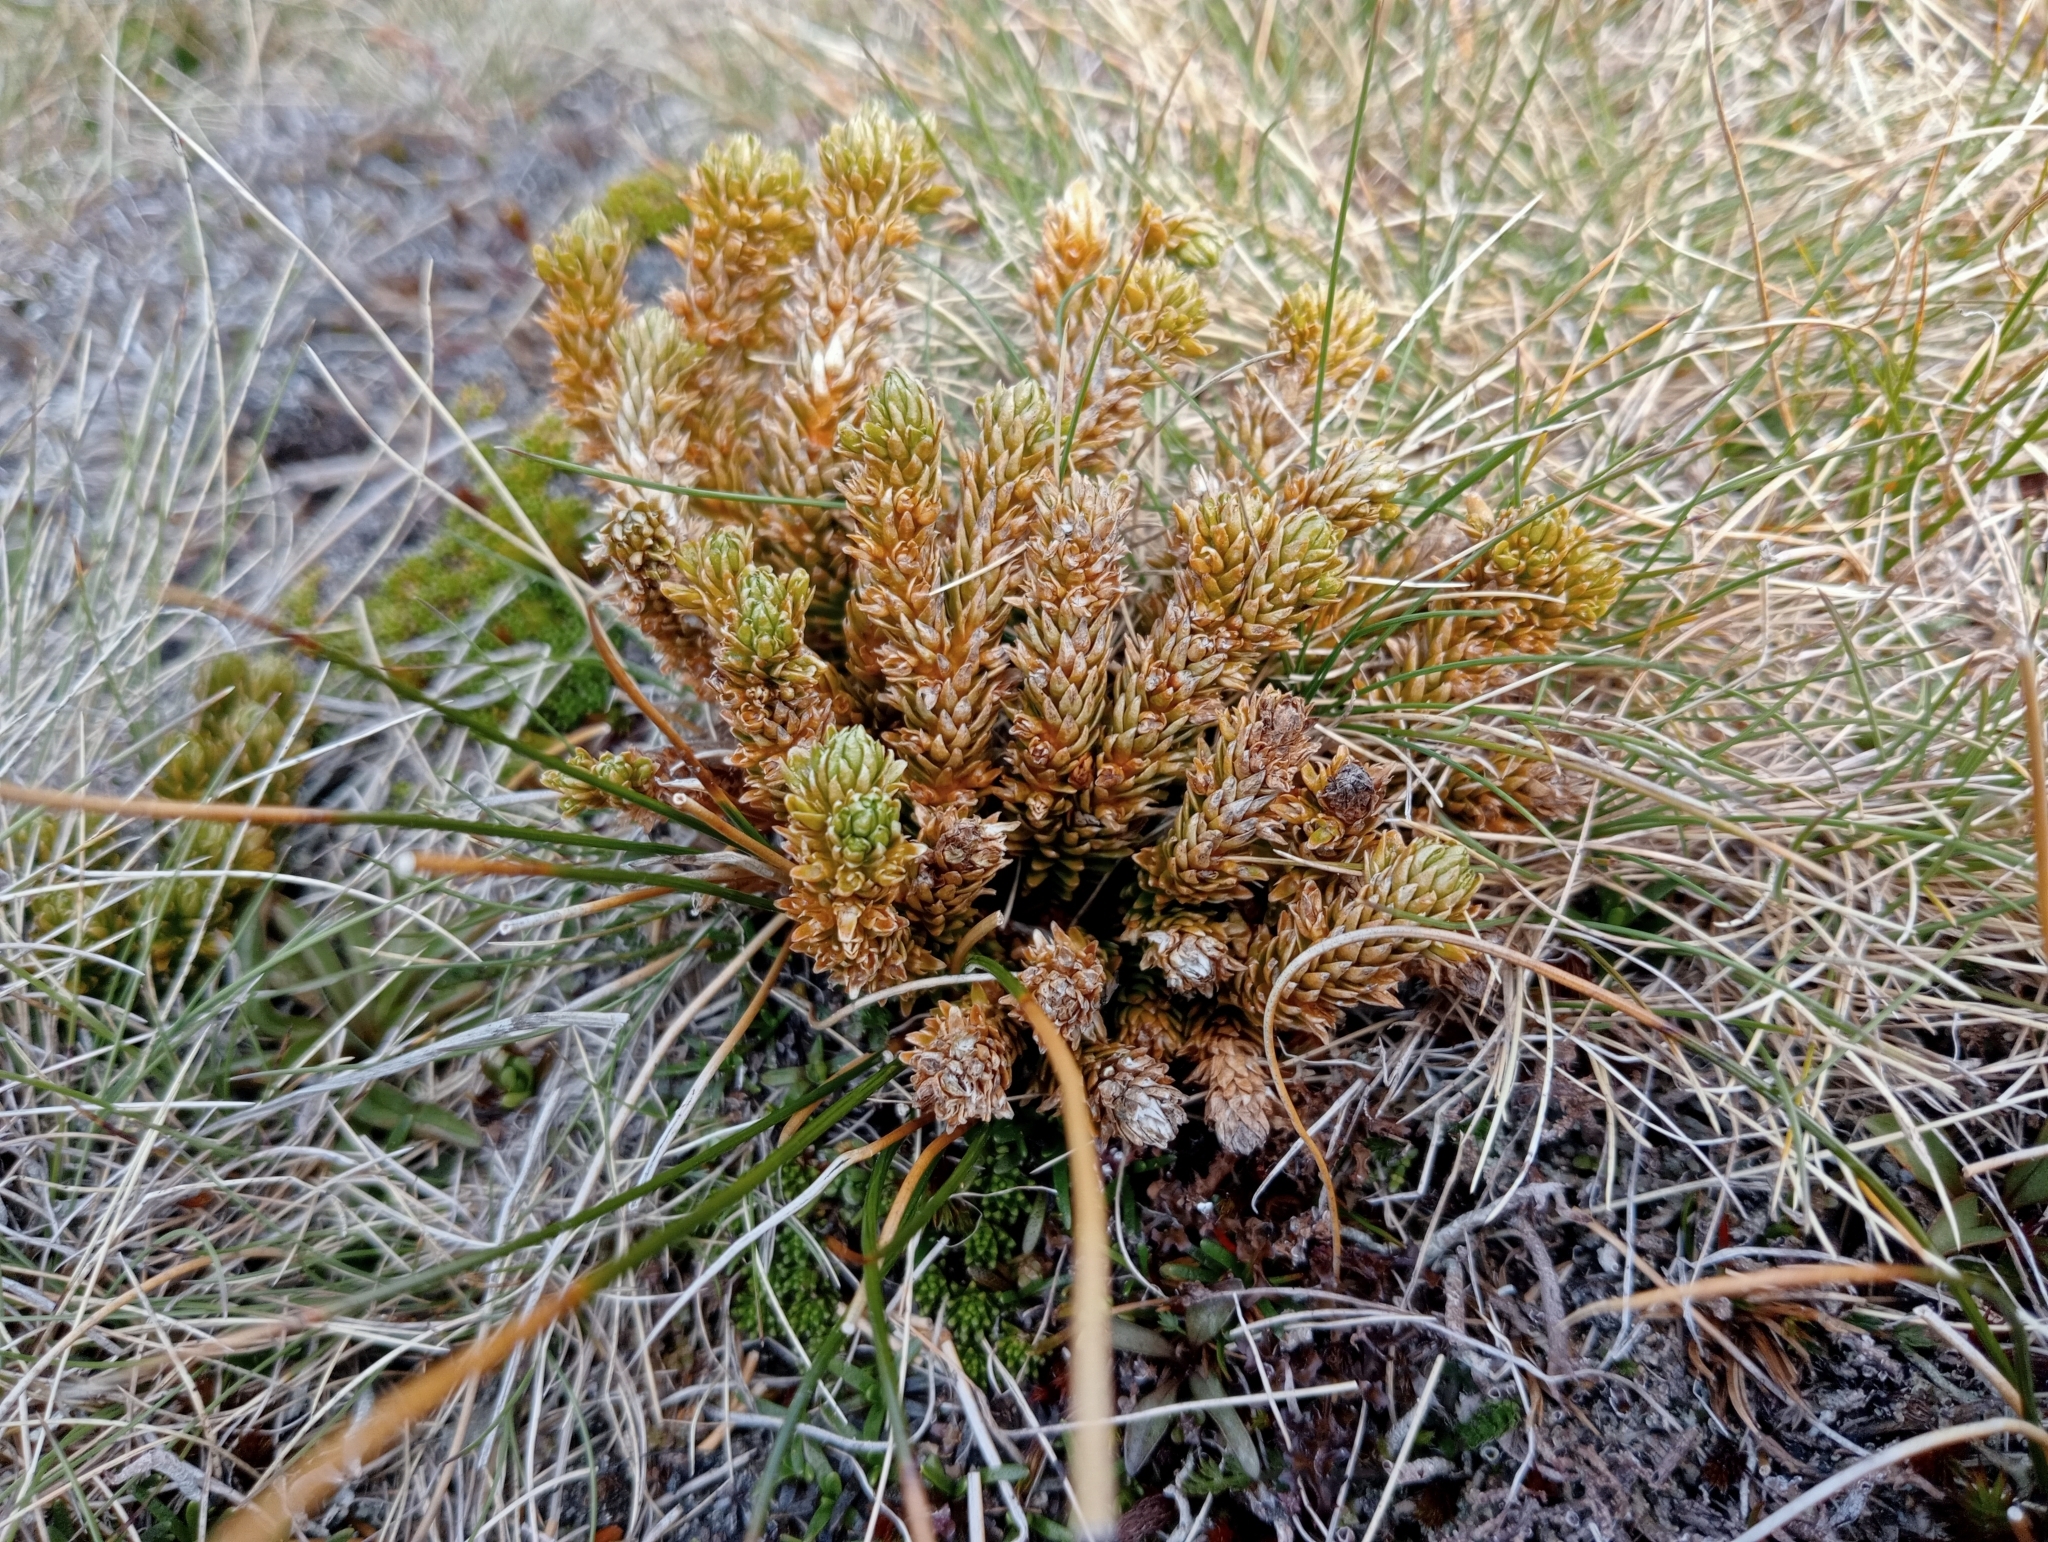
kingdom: Plantae
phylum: Tracheophyta
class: Lycopodiopsida
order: Lycopodiales
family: Lycopodiaceae
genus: Huperzia
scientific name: Huperzia australiana
